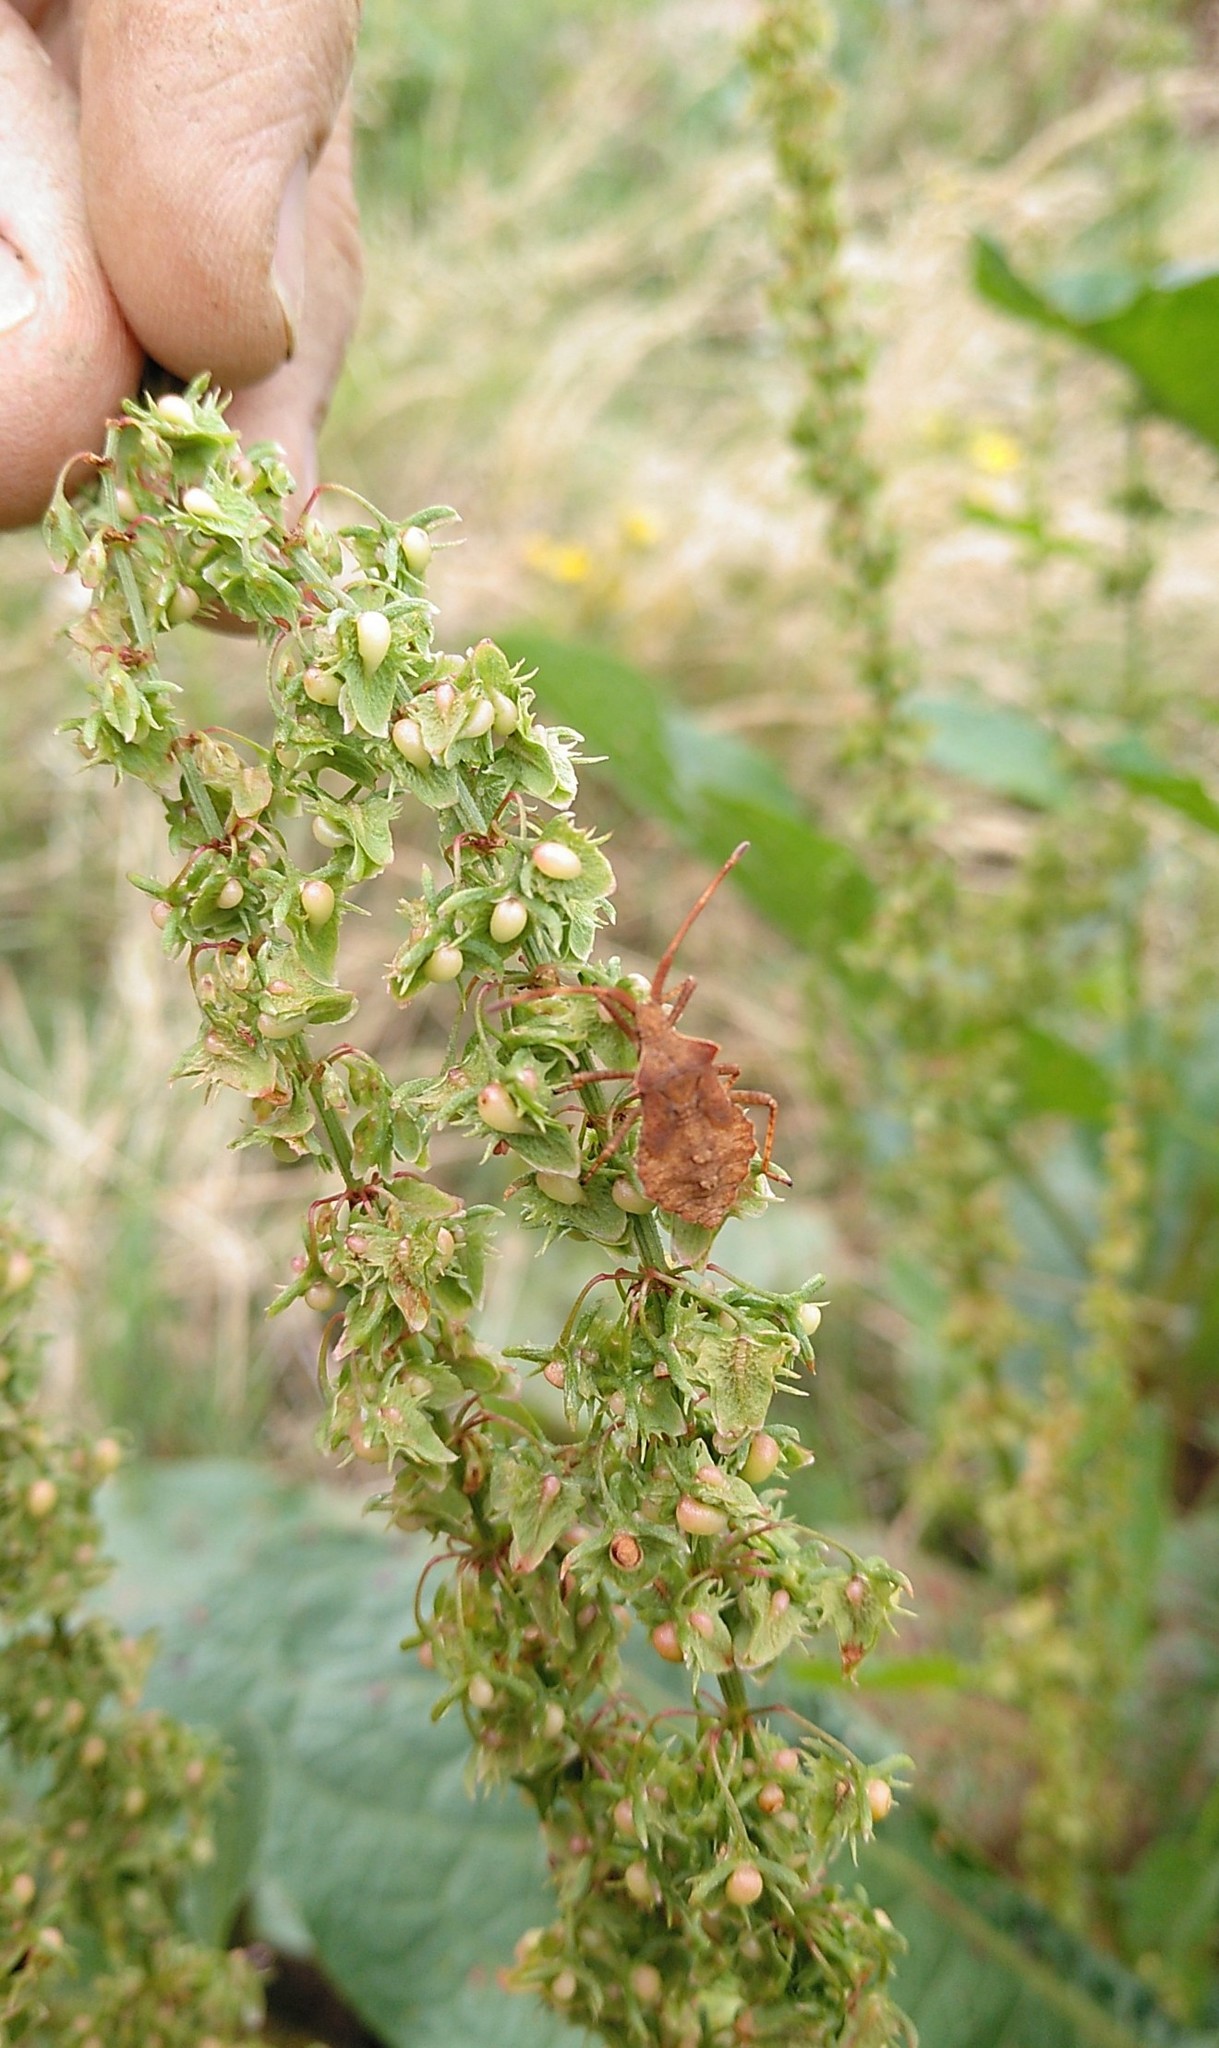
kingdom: Animalia
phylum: Arthropoda
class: Insecta
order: Hemiptera
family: Coreidae
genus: Coreus
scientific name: Coreus marginatus
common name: Dock bug
